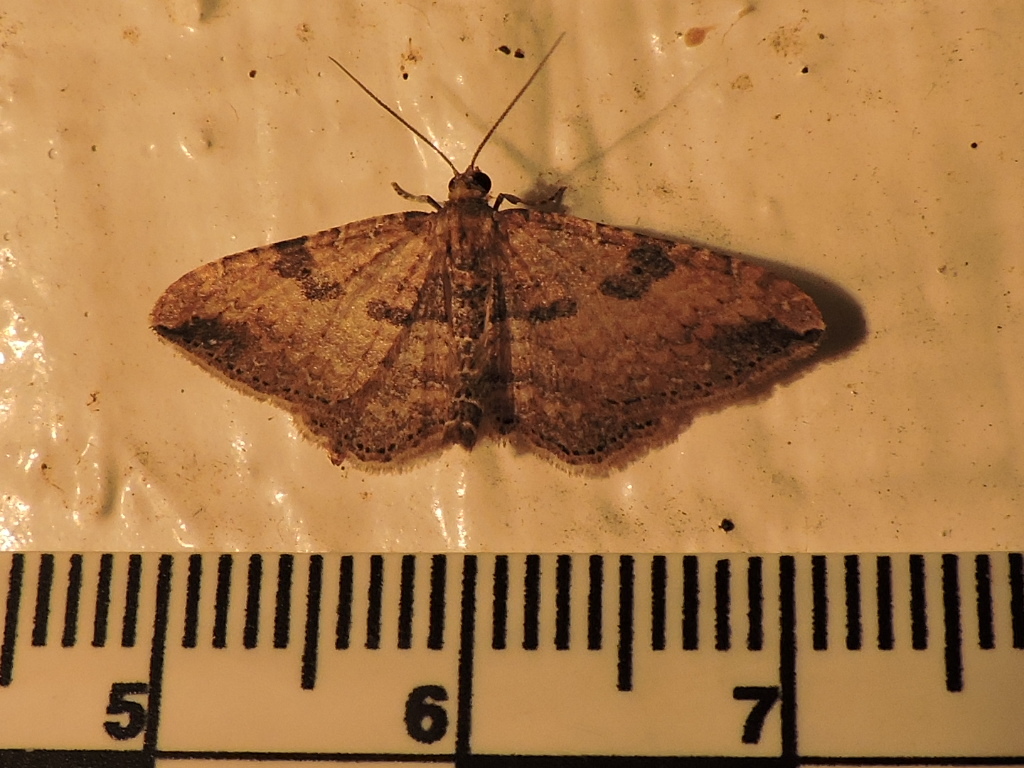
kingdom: Animalia
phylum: Arthropoda
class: Insecta
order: Lepidoptera
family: Geometridae
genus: Orthonama
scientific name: Orthonama obstipata
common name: The gem
